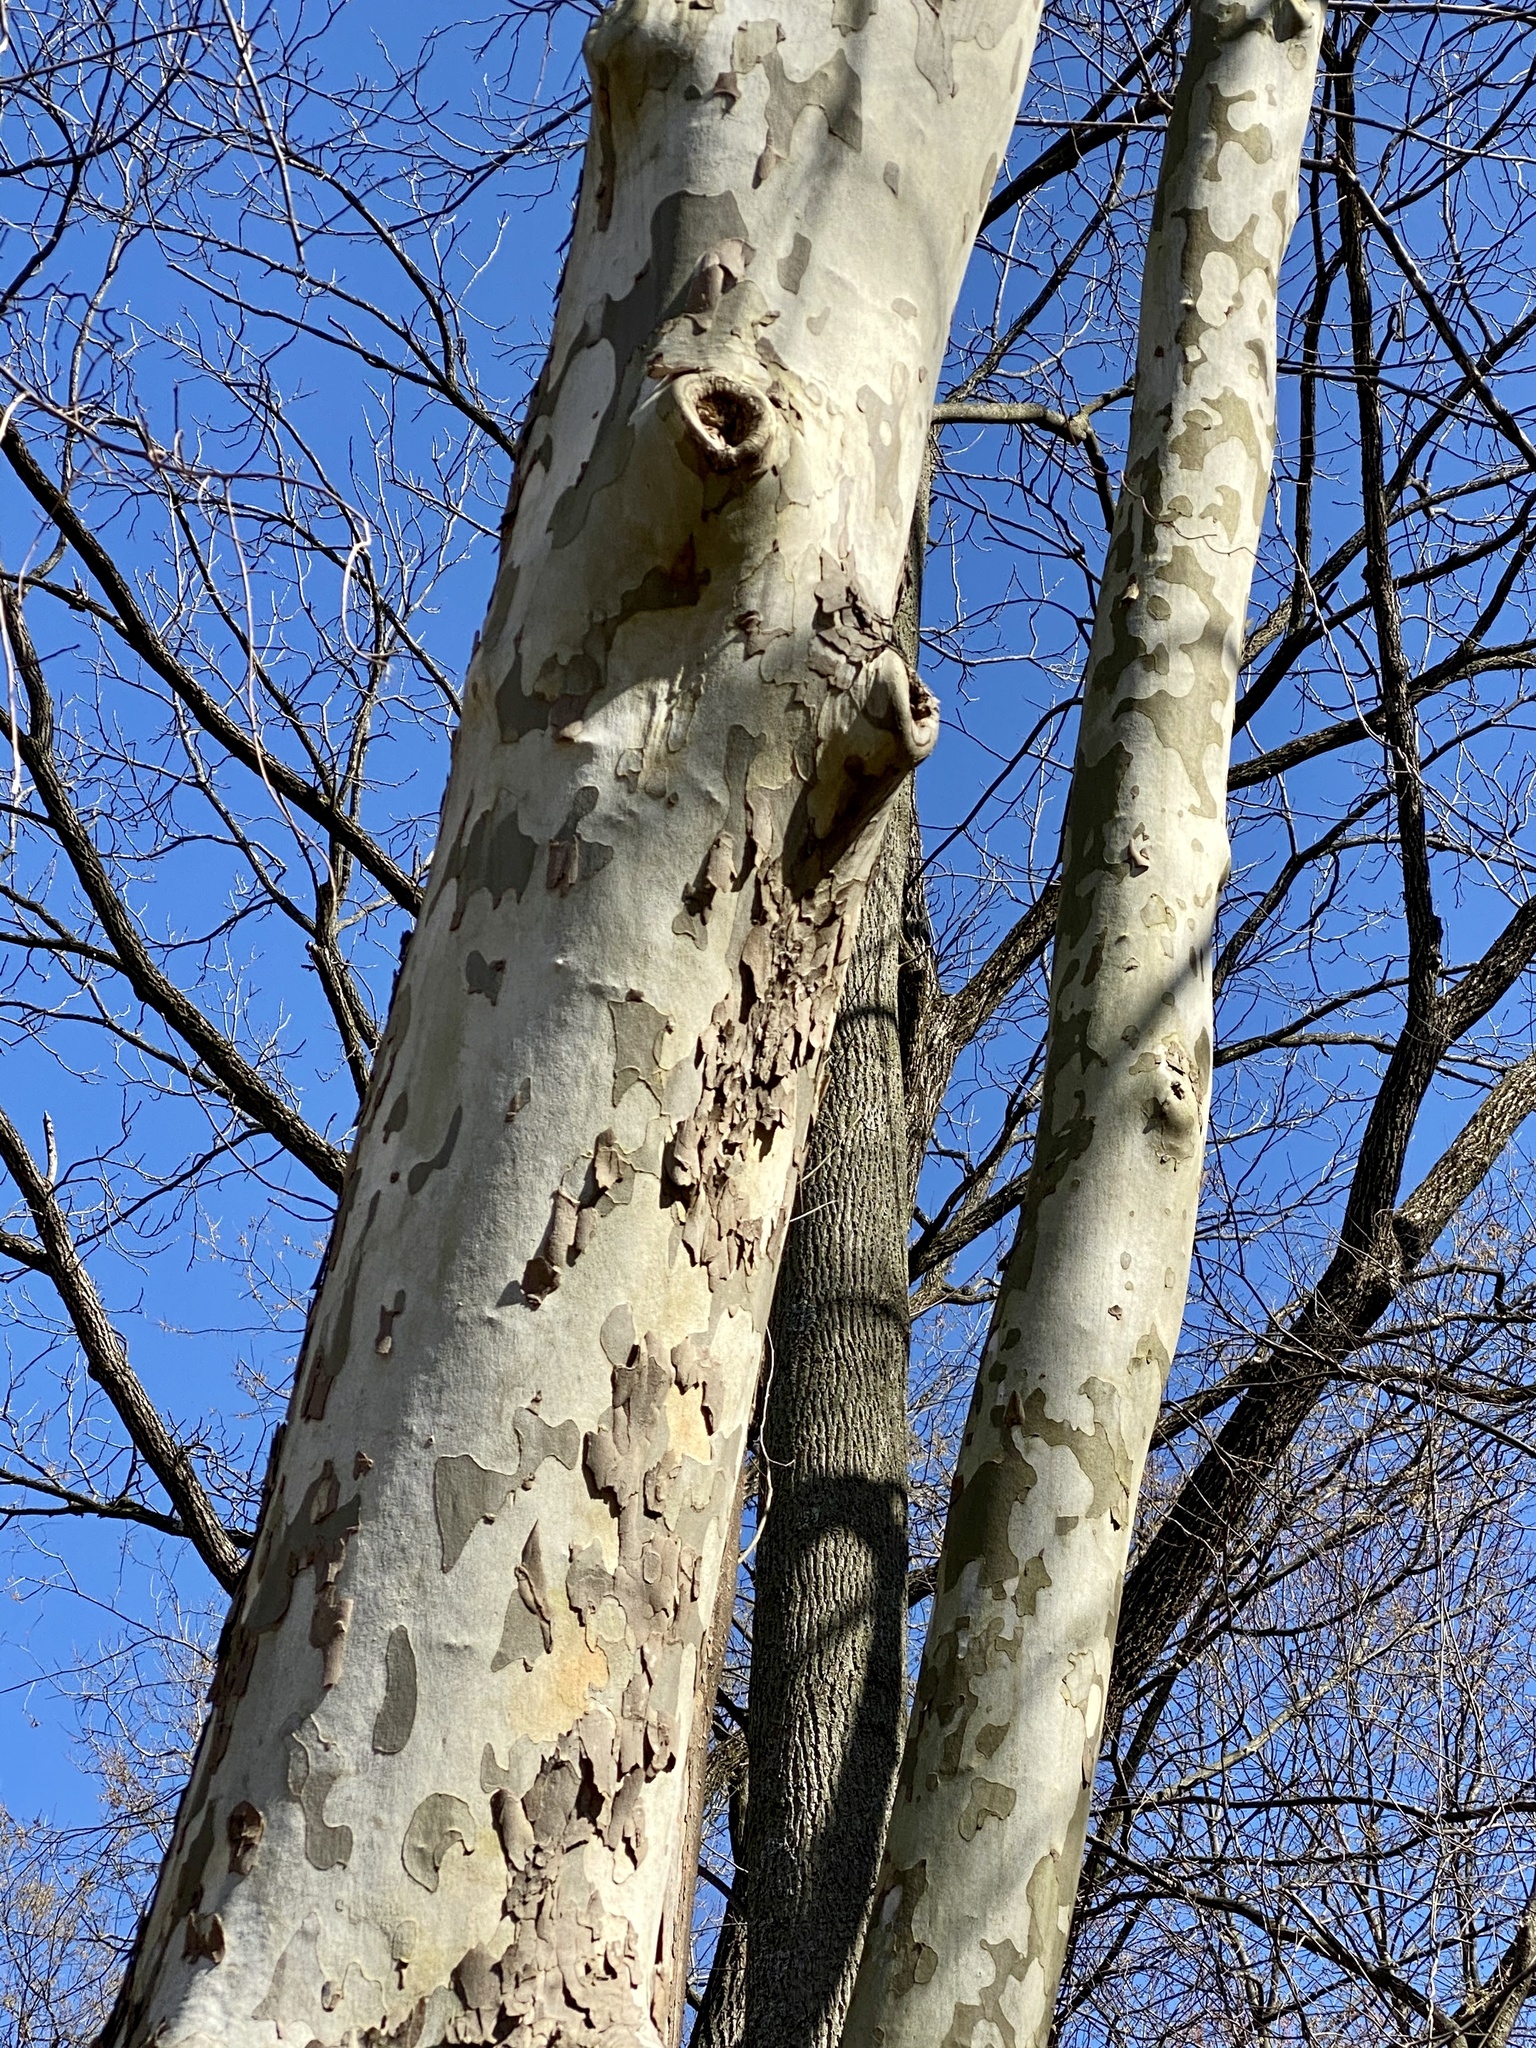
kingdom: Plantae
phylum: Tracheophyta
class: Magnoliopsida
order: Proteales
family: Platanaceae
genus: Platanus
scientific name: Platanus occidentalis
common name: American sycamore
